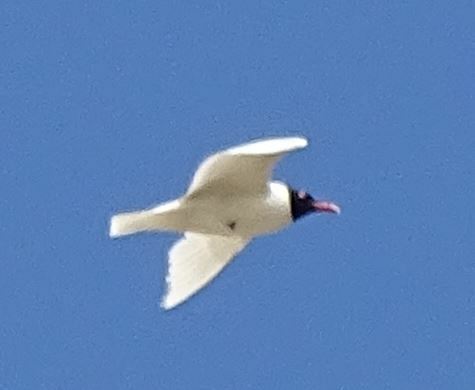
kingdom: Animalia
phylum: Chordata
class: Aves
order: Charadriiformes
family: Laridae
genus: Ichthyaetus
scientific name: Ichthyaetus melanocephalus
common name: Mediterranean gull
